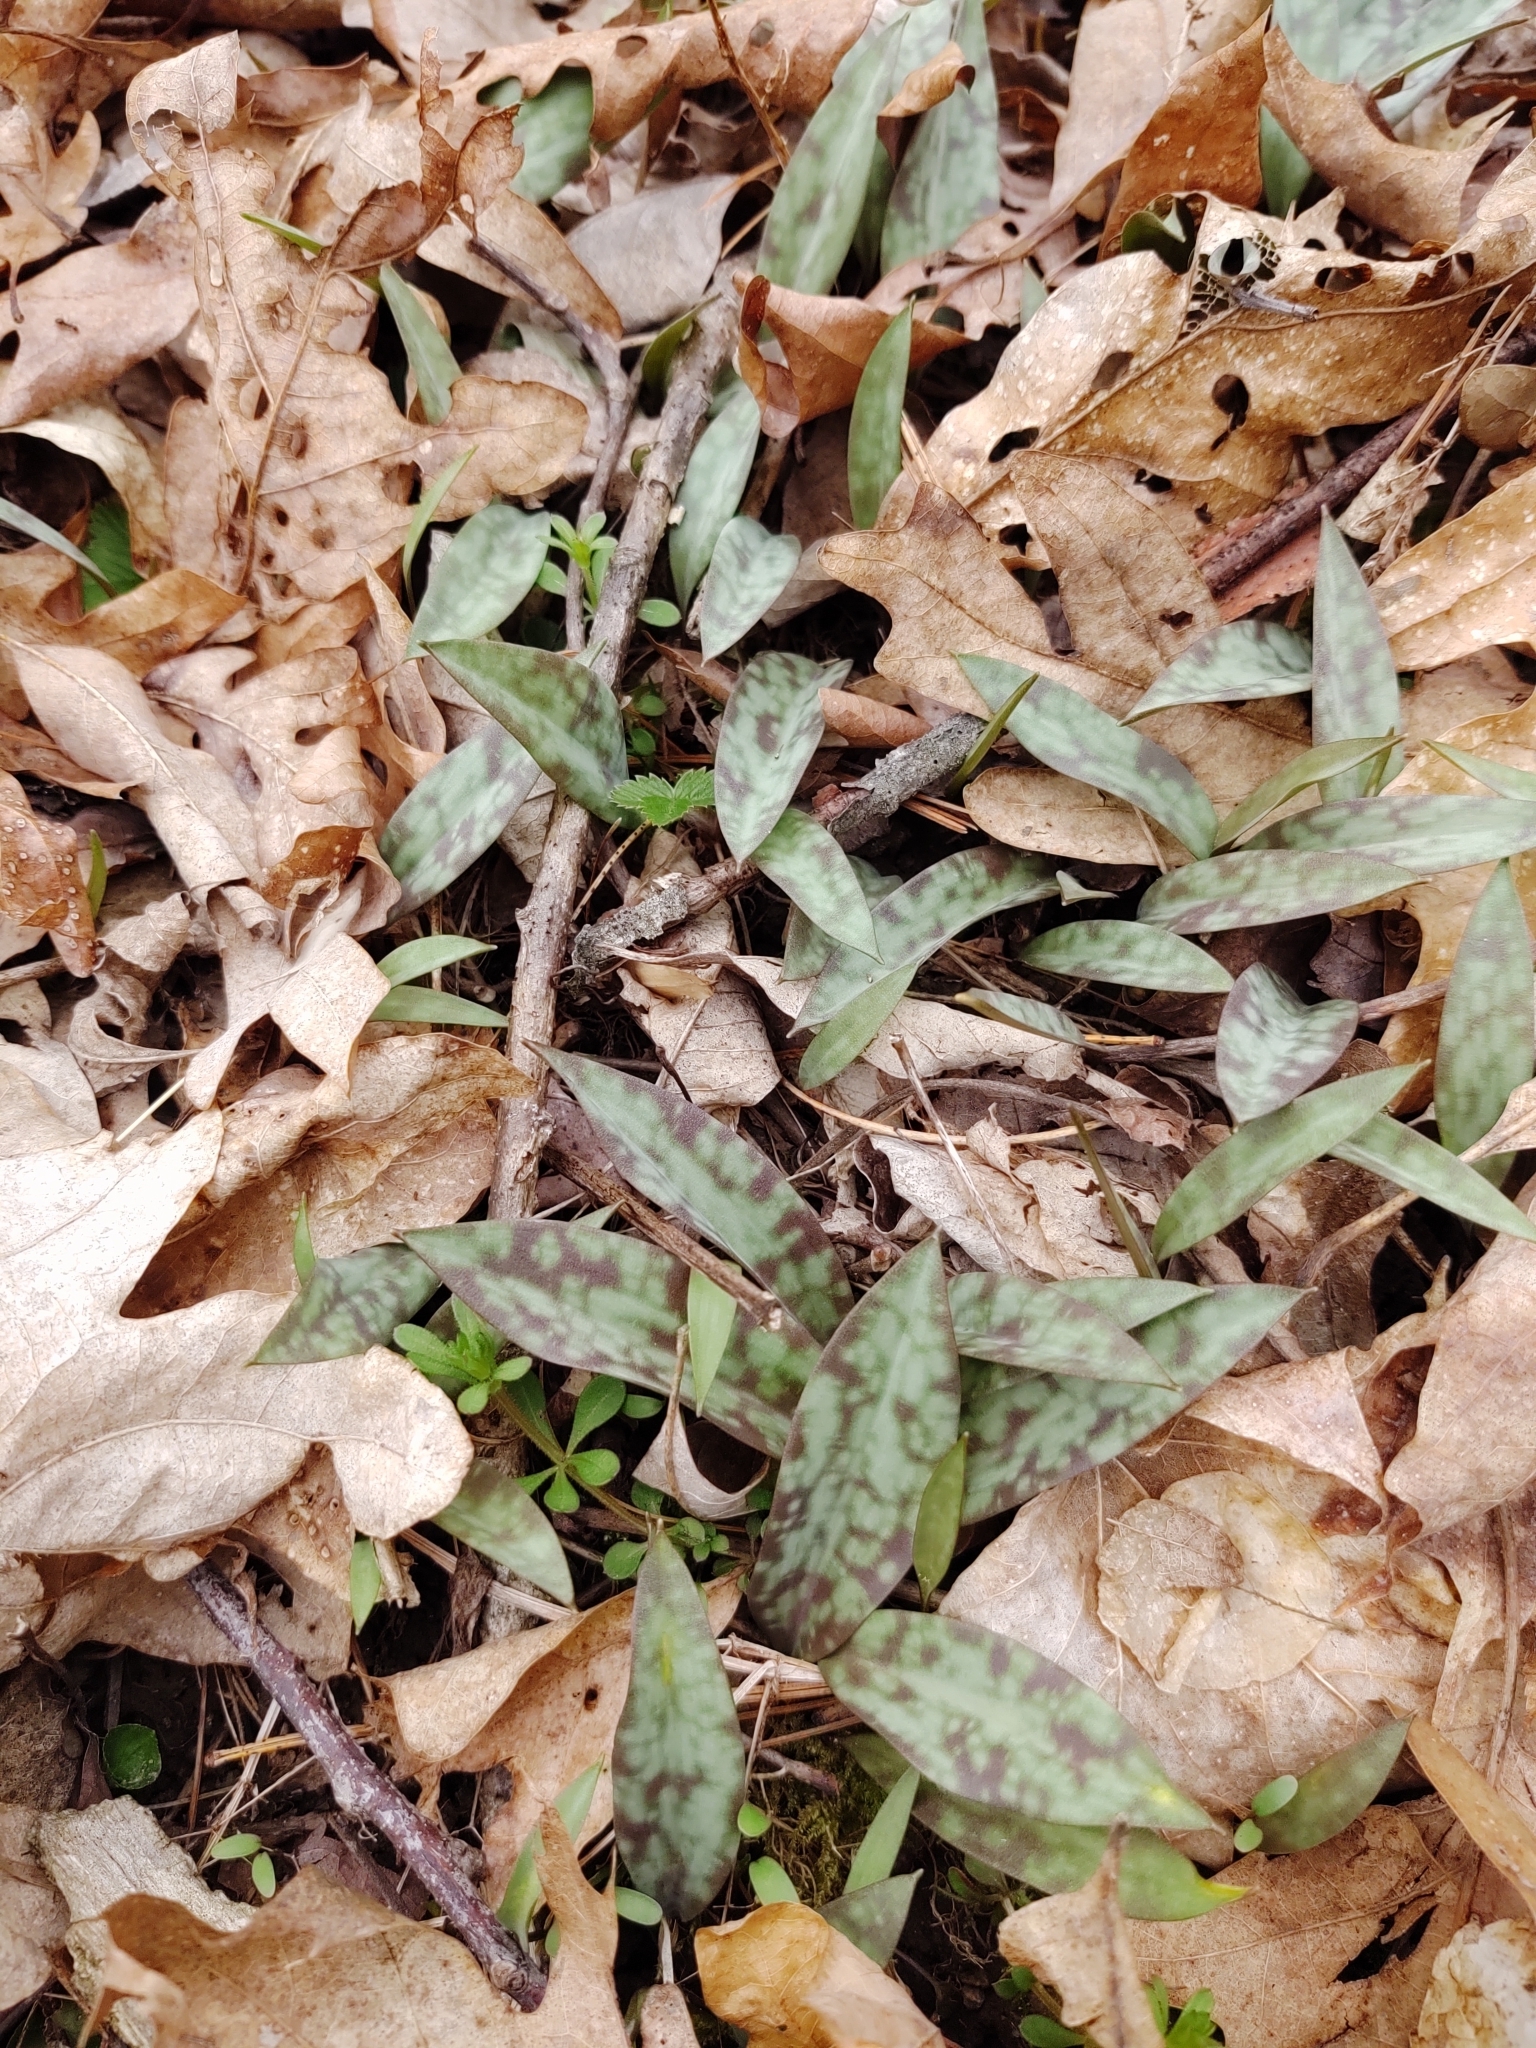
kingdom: Plantae
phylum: Tracheophyta
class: Liliopsida
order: Liliales
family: Liliaceae
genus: Erythronium
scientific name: Erythronium americanum
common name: Yellow adder's-tongue
